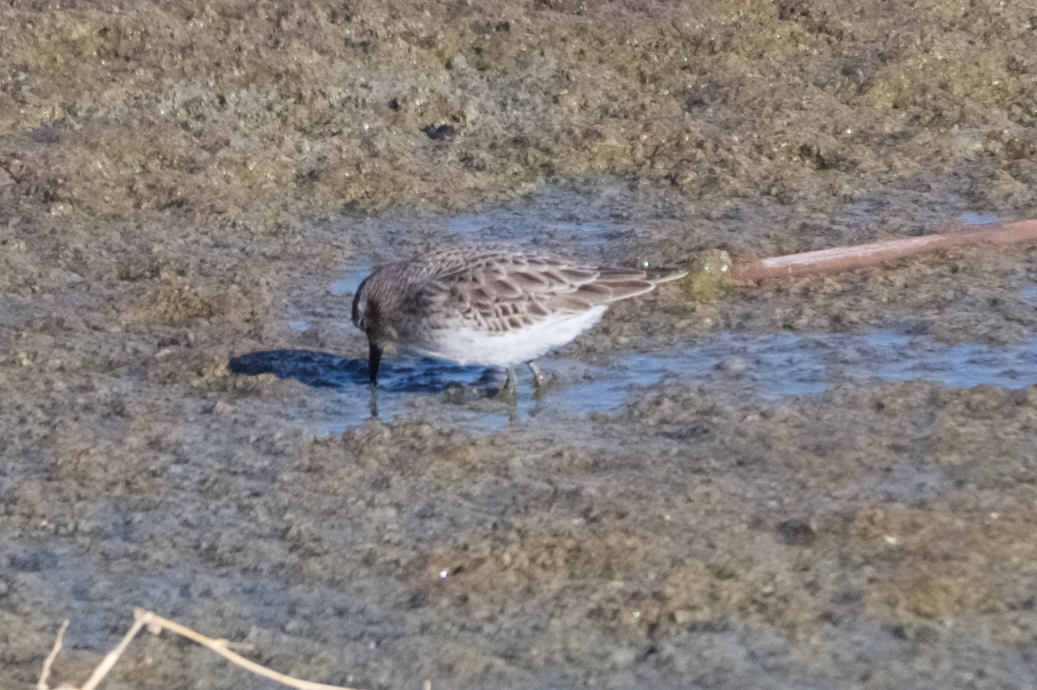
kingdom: Animalia
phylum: Chordata
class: Aves
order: Charadriiformes
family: Scolopacidae
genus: Calidris
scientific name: Calidris minutilla
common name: Least sandpiper
